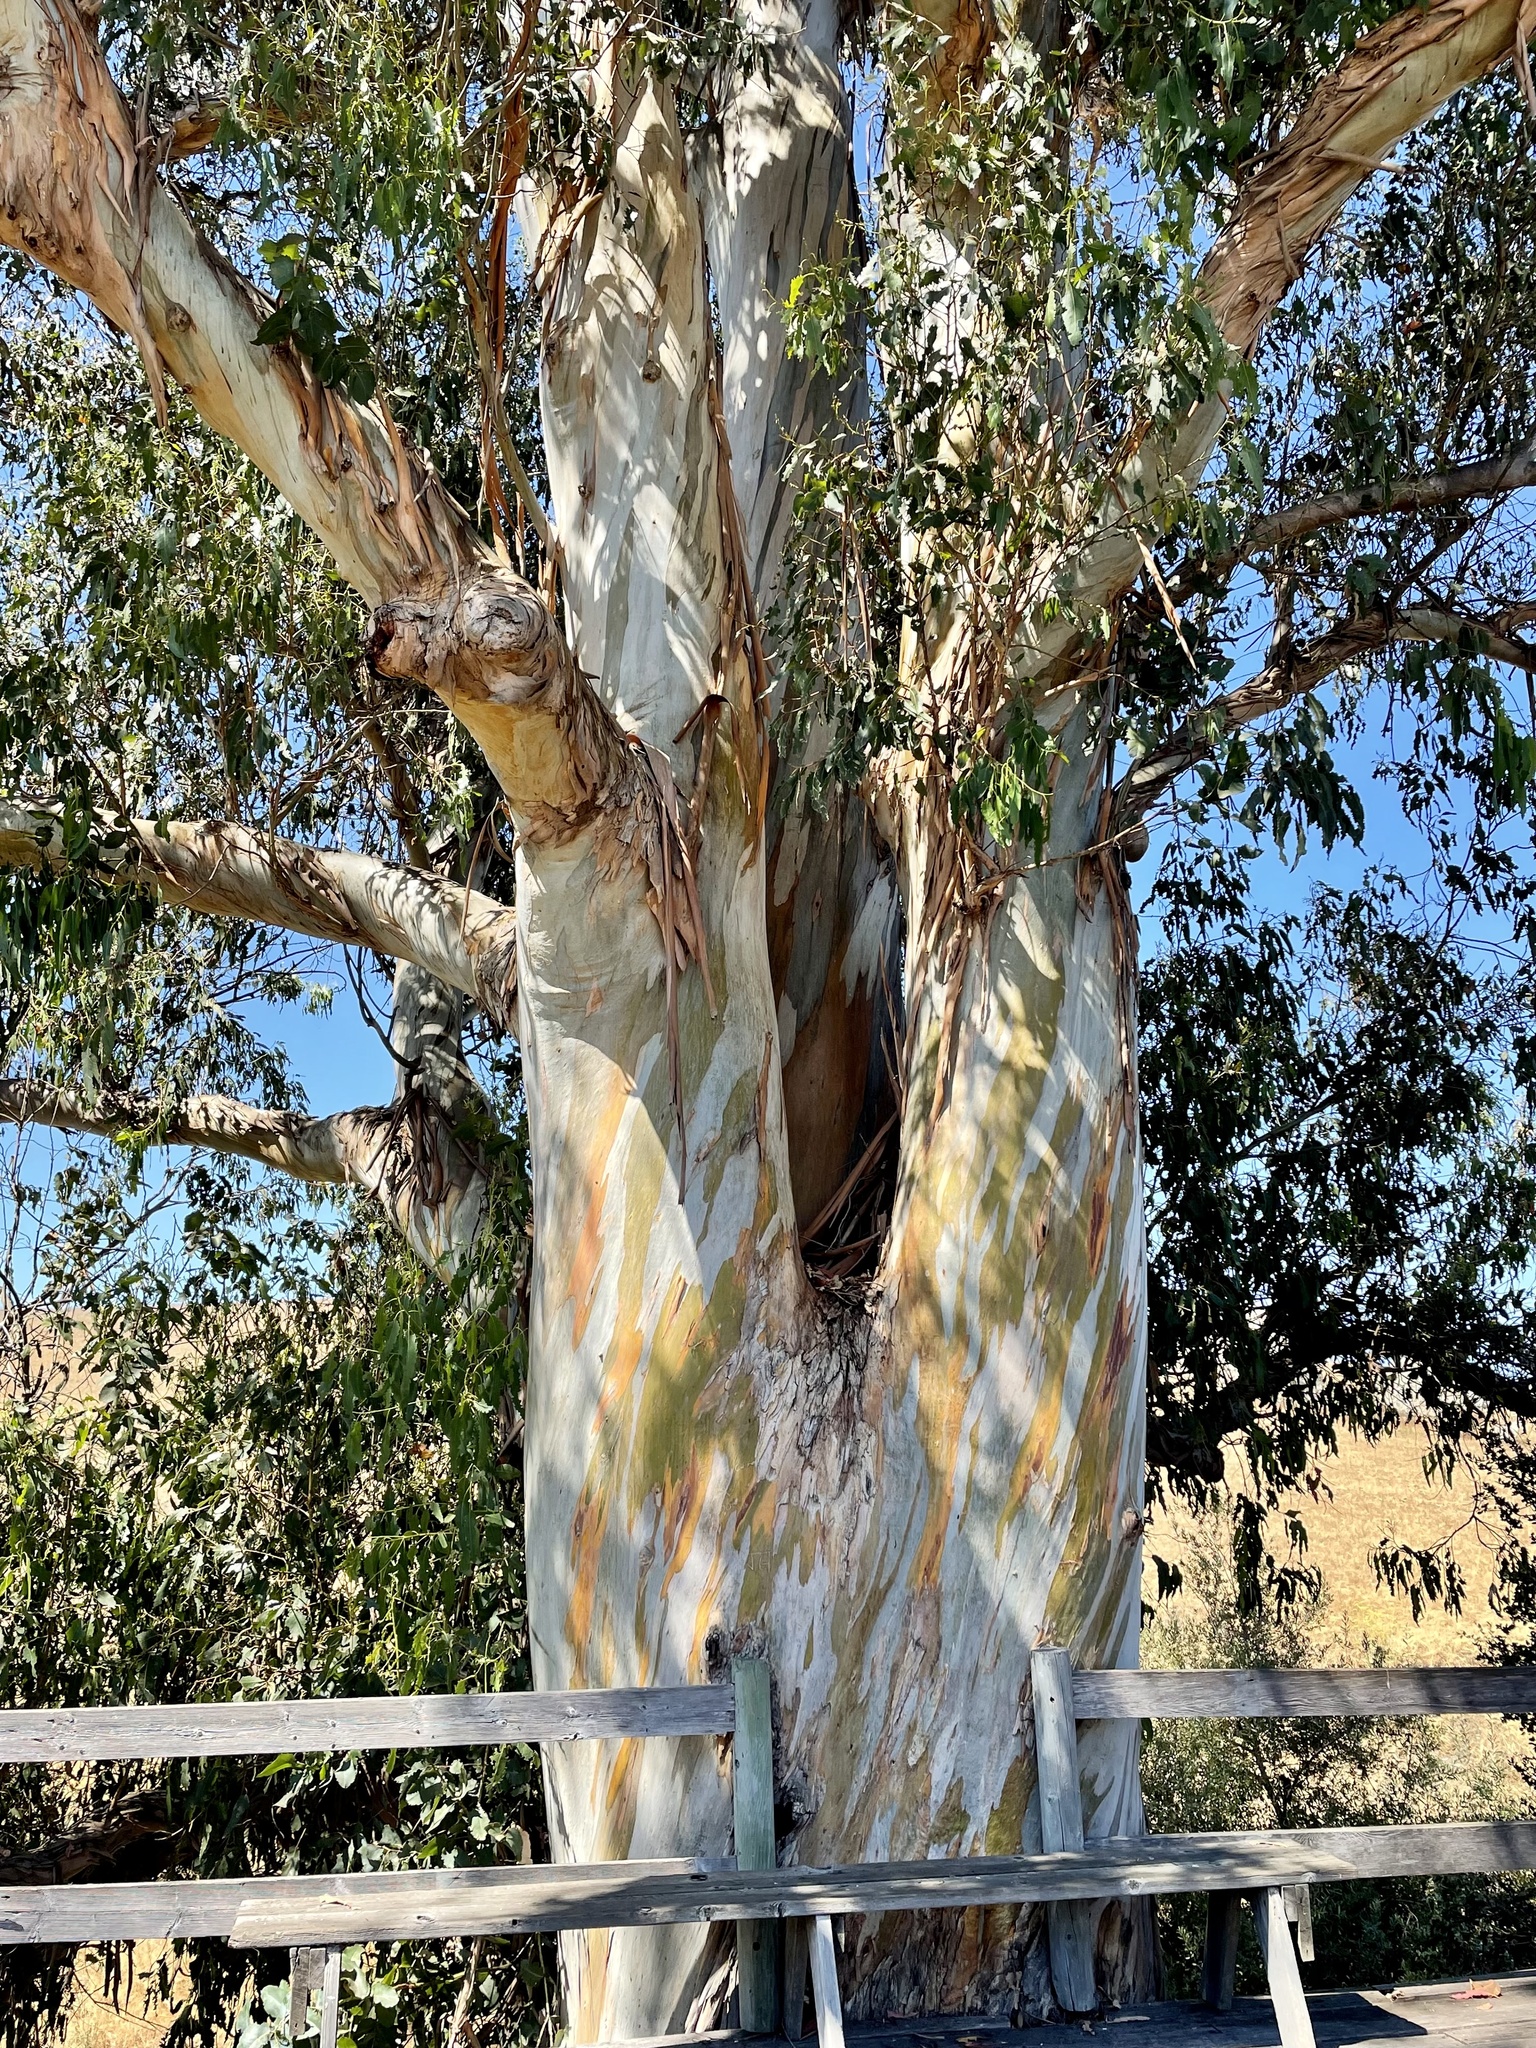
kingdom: Plantae
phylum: Tracheophyta
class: Magnoliopsida
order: Myrtales
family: Myrtaceae
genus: Eucalyptus
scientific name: Eucalyptus globulus
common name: Southern blue-gum
